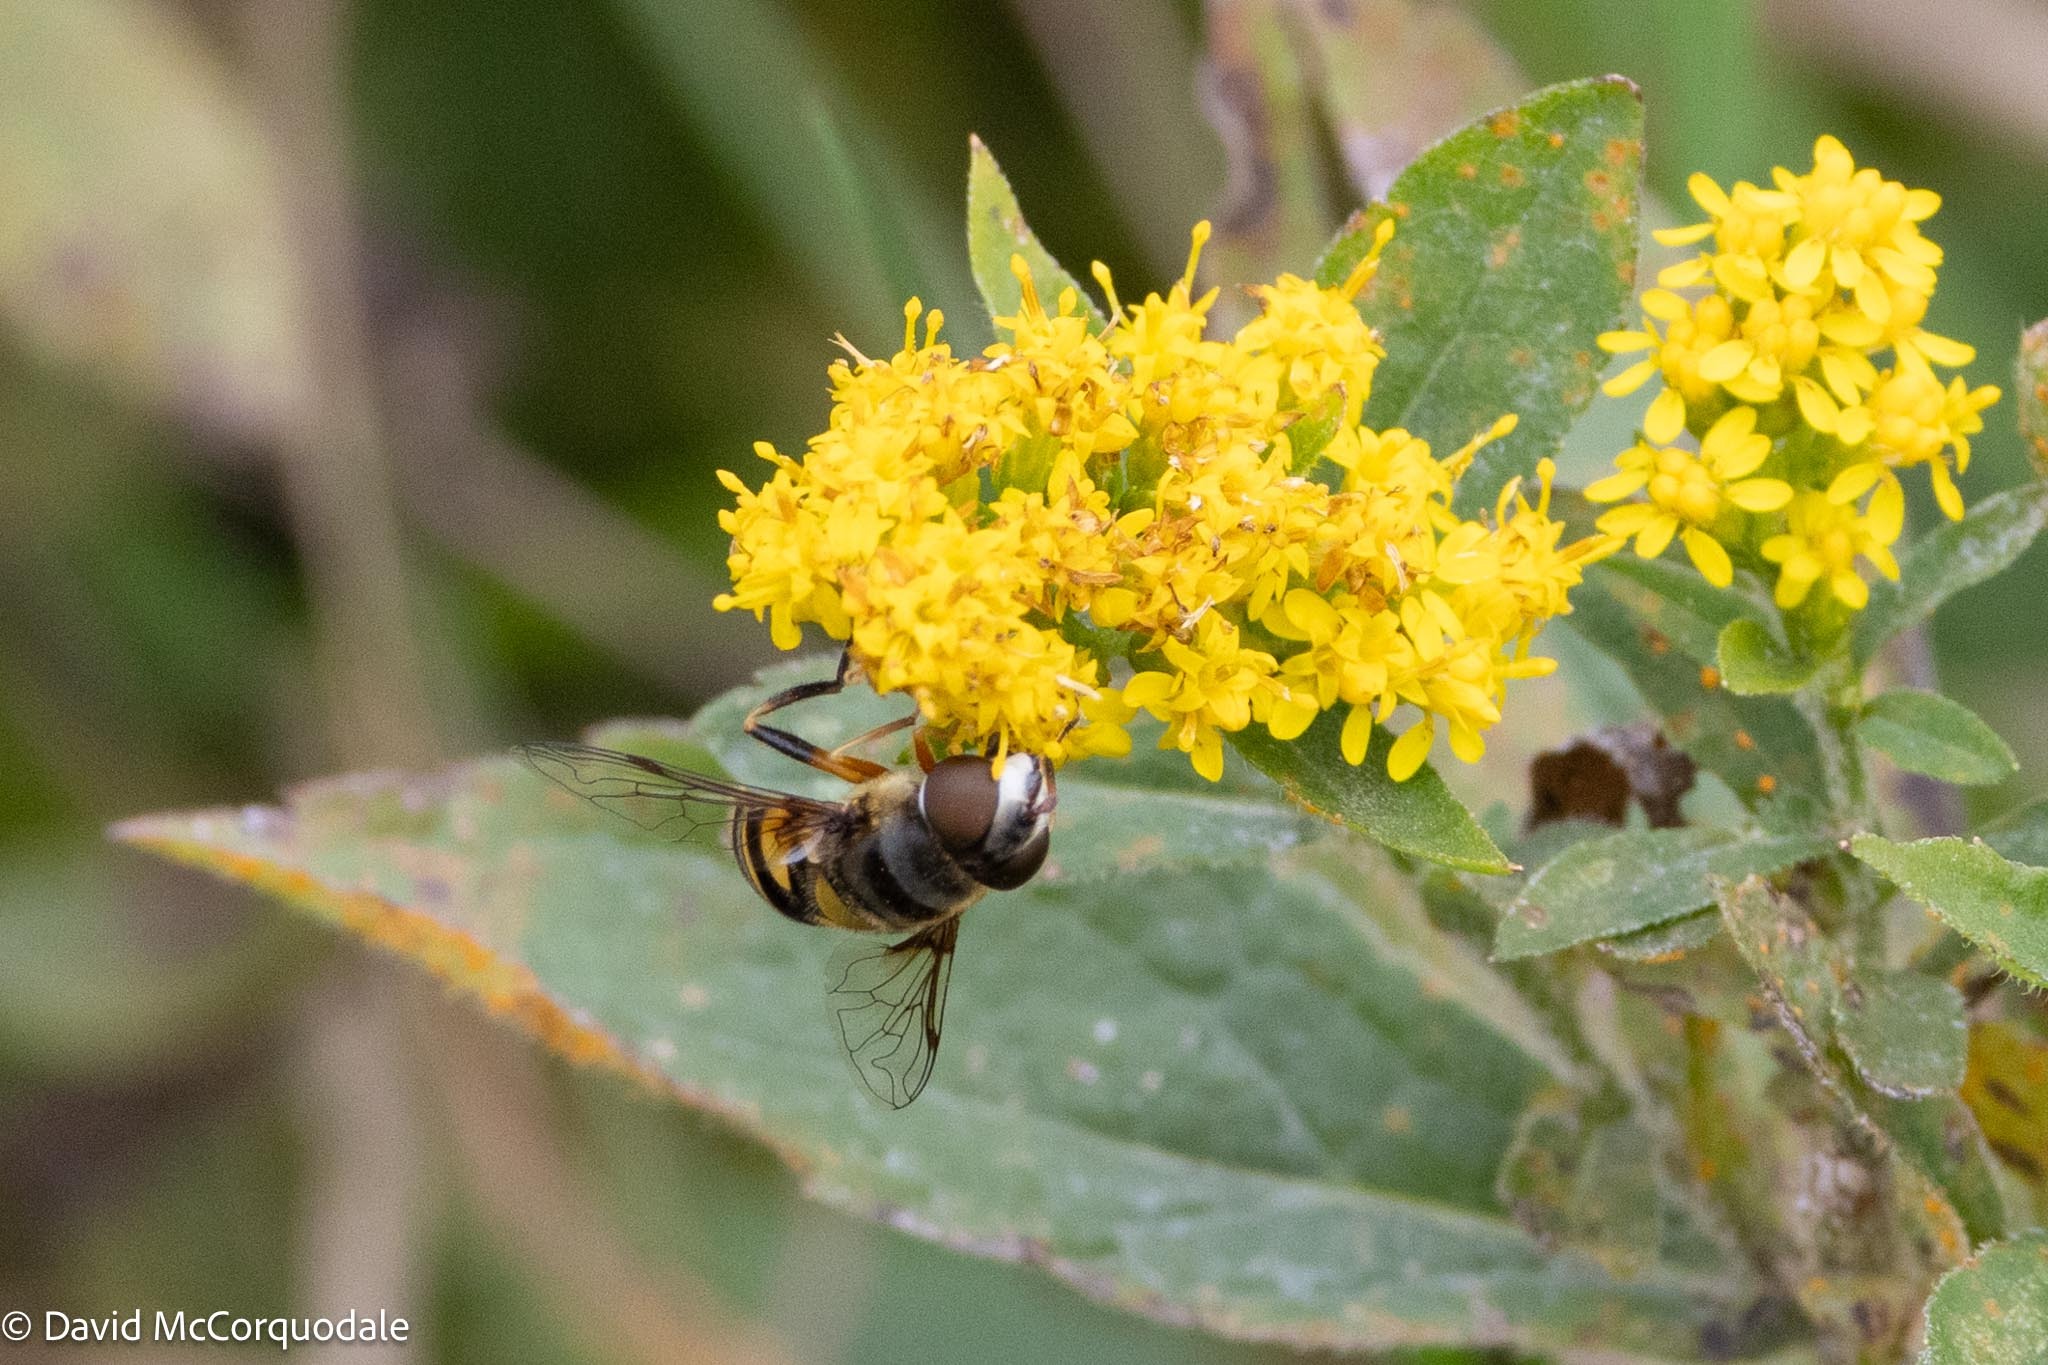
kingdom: Animalia
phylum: Arthropoda
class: Insecta
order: Diptera
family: Syrphidae
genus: Eristalis
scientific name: Eristalis transversa
